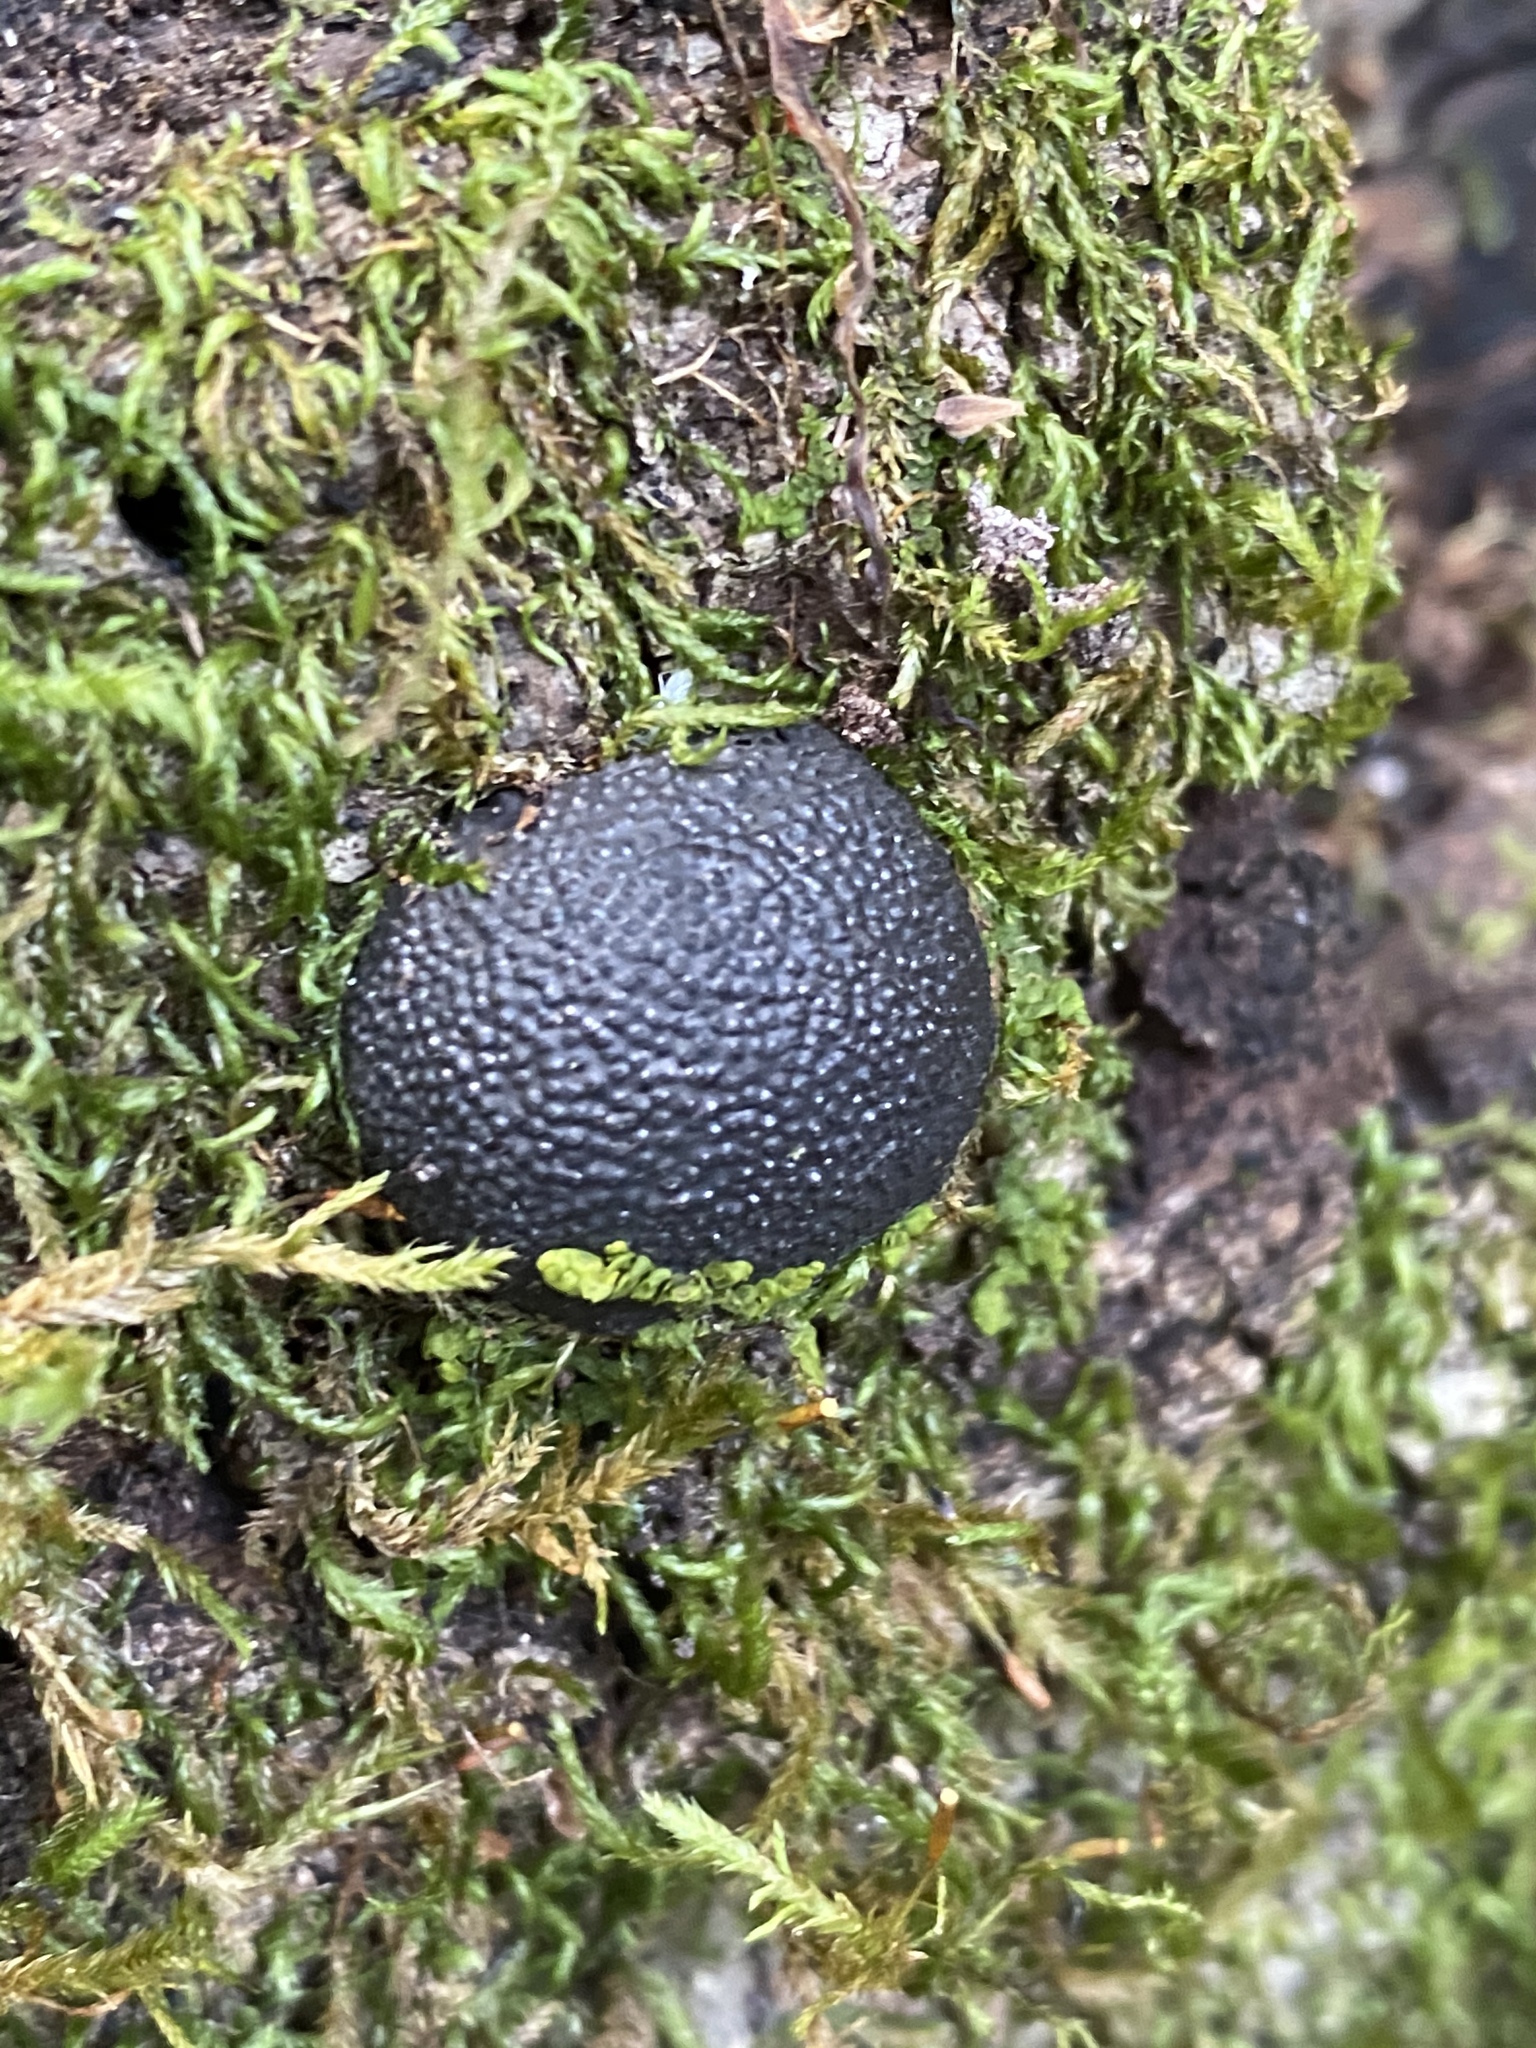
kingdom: Fungi
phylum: Ascomycota
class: Sordariomycetes
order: Xylariales
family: Hypoxylaceae
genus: Annulohypoxylon
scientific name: Annulohypoxylon thouarsianum
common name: Cramp balls
